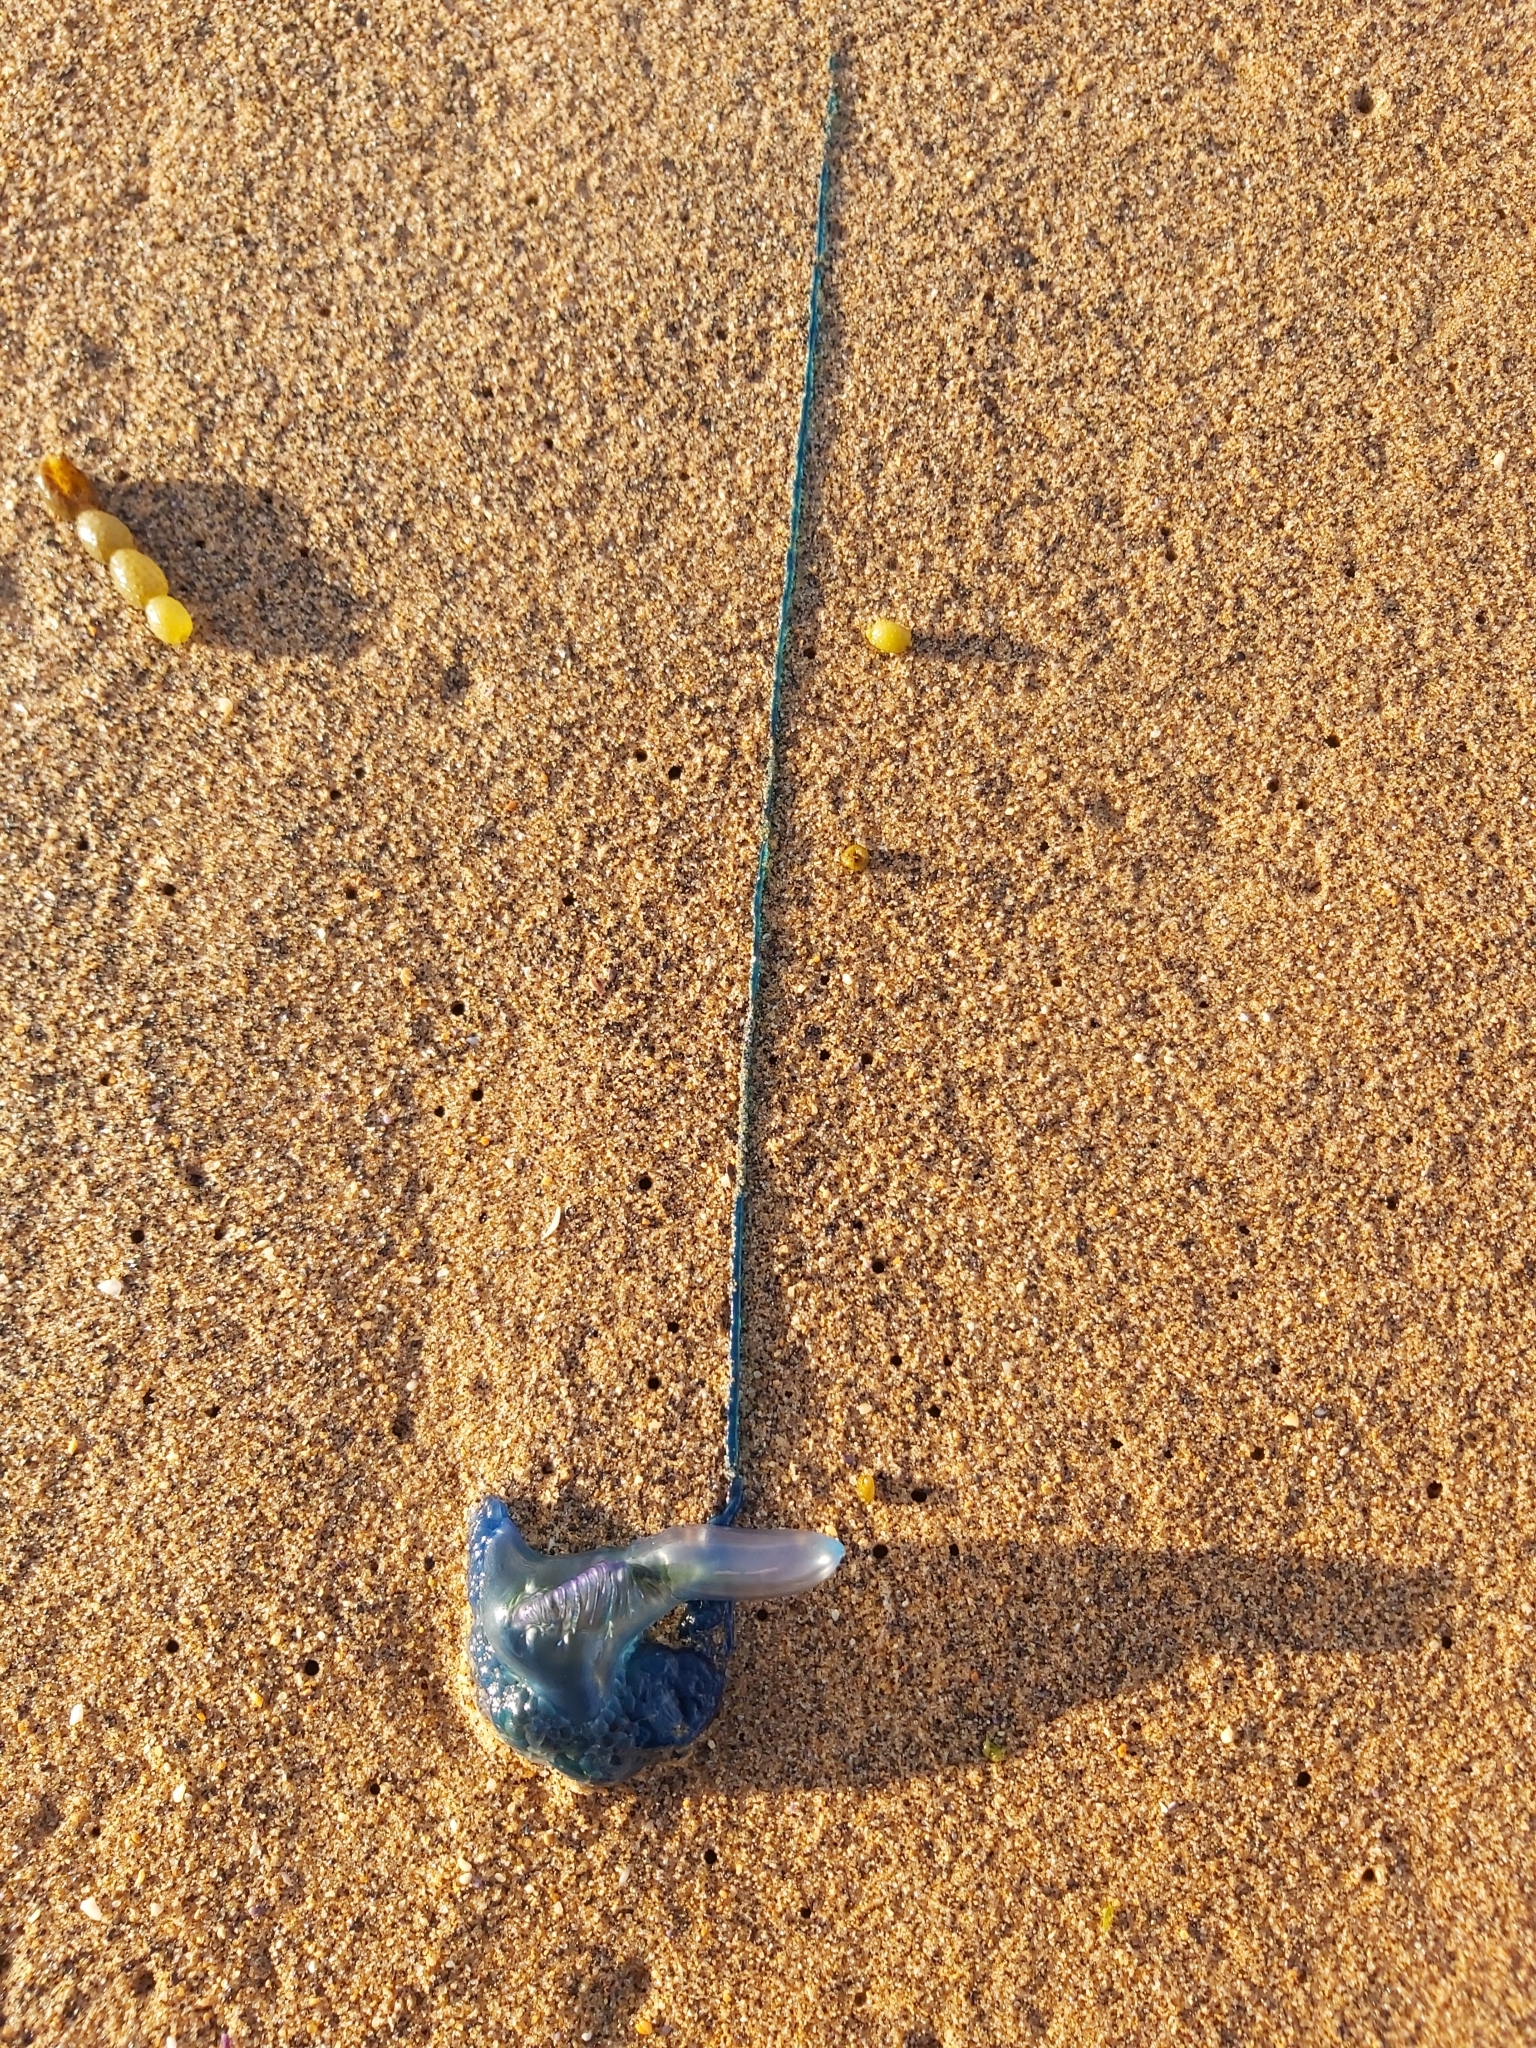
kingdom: Animalia
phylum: Cnidaria
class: Hydrozoa
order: Siphonophorae
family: Physaliidae
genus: Physalia
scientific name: Physalia physalis
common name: Portuguese man-of-war
